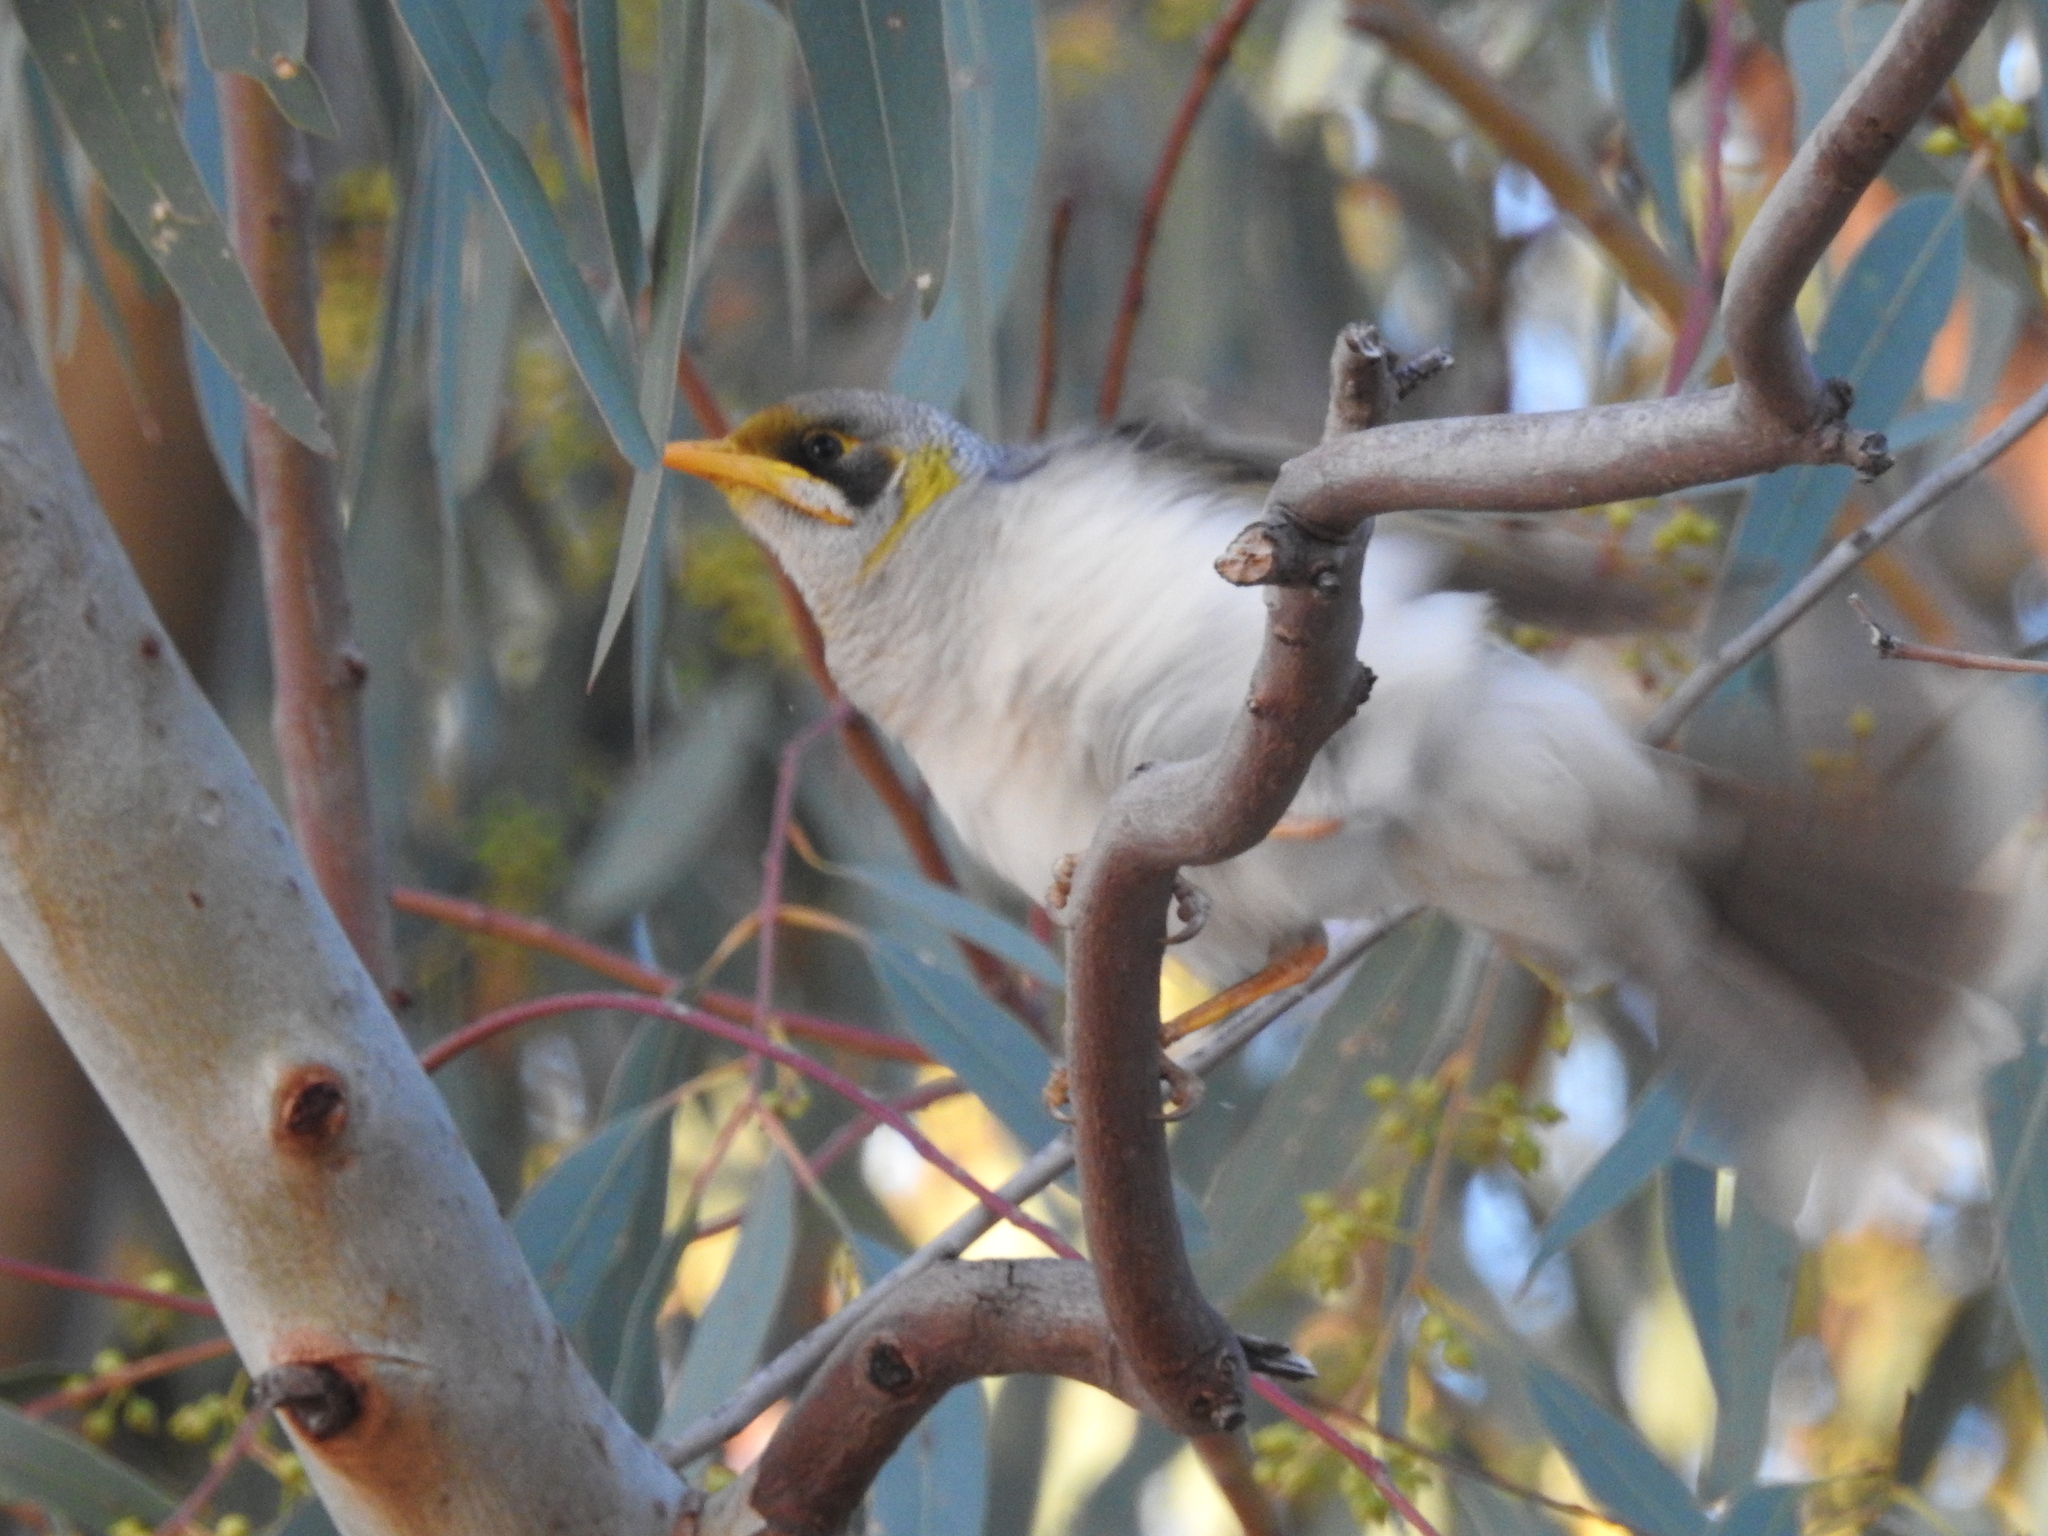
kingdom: Animalia
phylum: Chordata
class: Aves
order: Passeriformes
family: Meliphagidae
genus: Manorina
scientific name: Manorina flavigula
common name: Yellow-throated miner
